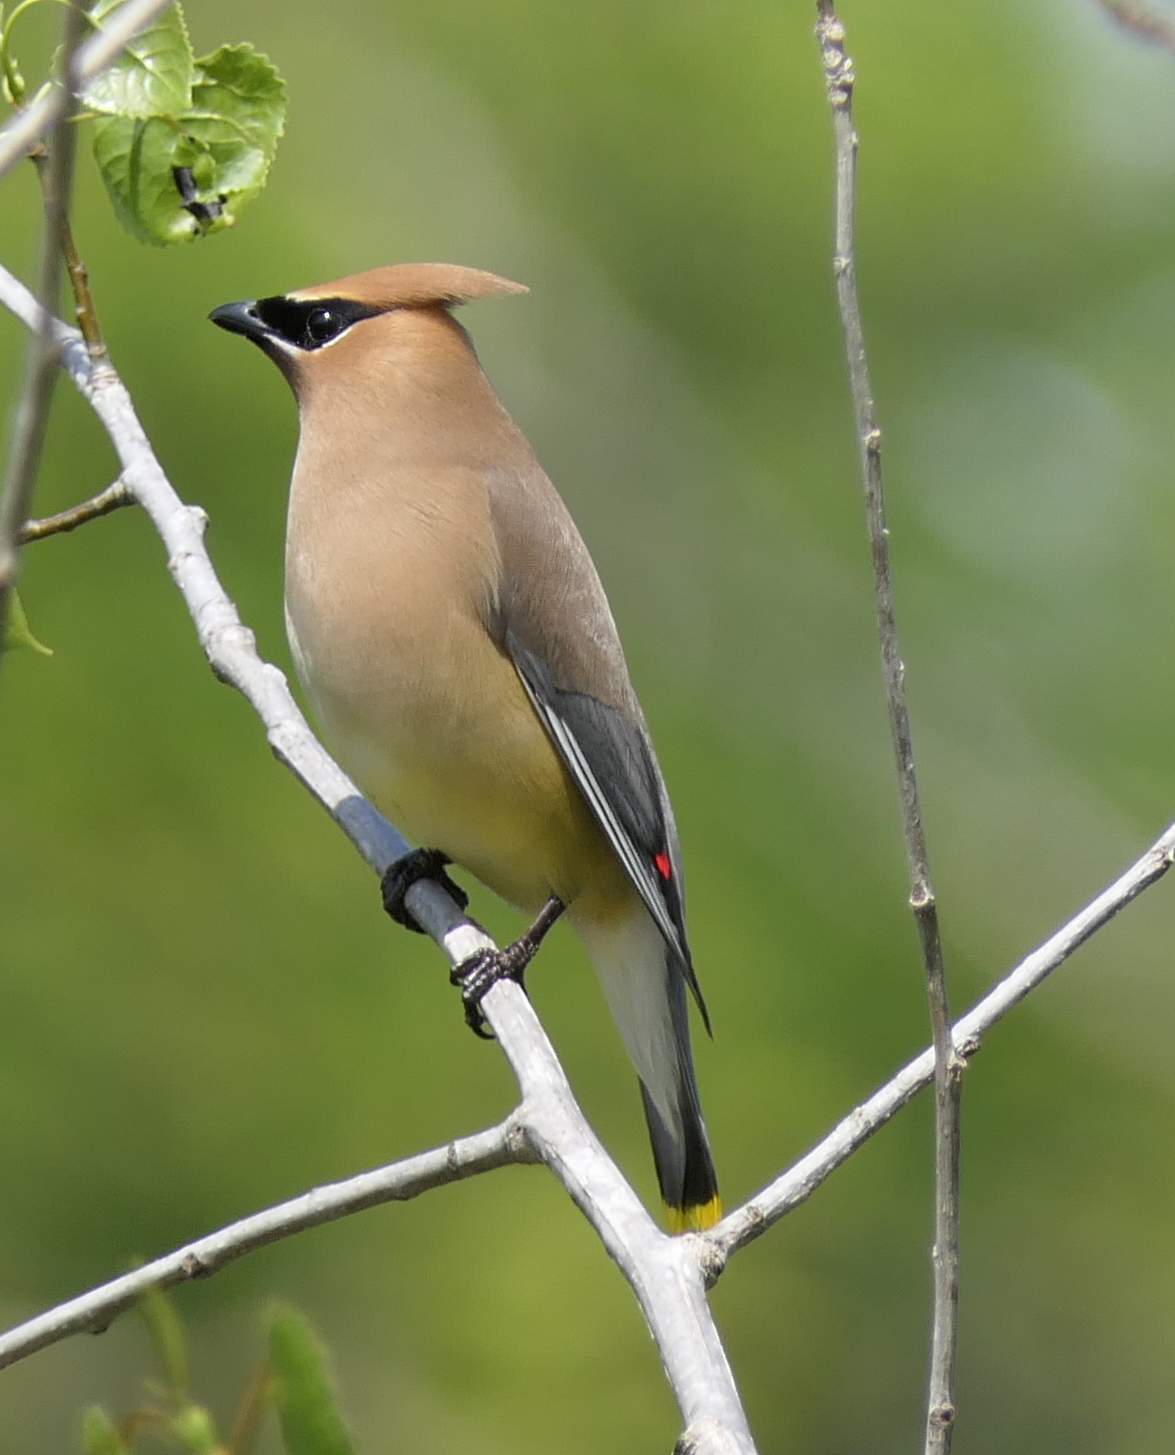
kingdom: Animalia
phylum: Chordata
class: Aves
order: Passeriformes
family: Bombycillidae
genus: Bombycilla
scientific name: Bombycilla cedrorum
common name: Cedar waxwing
